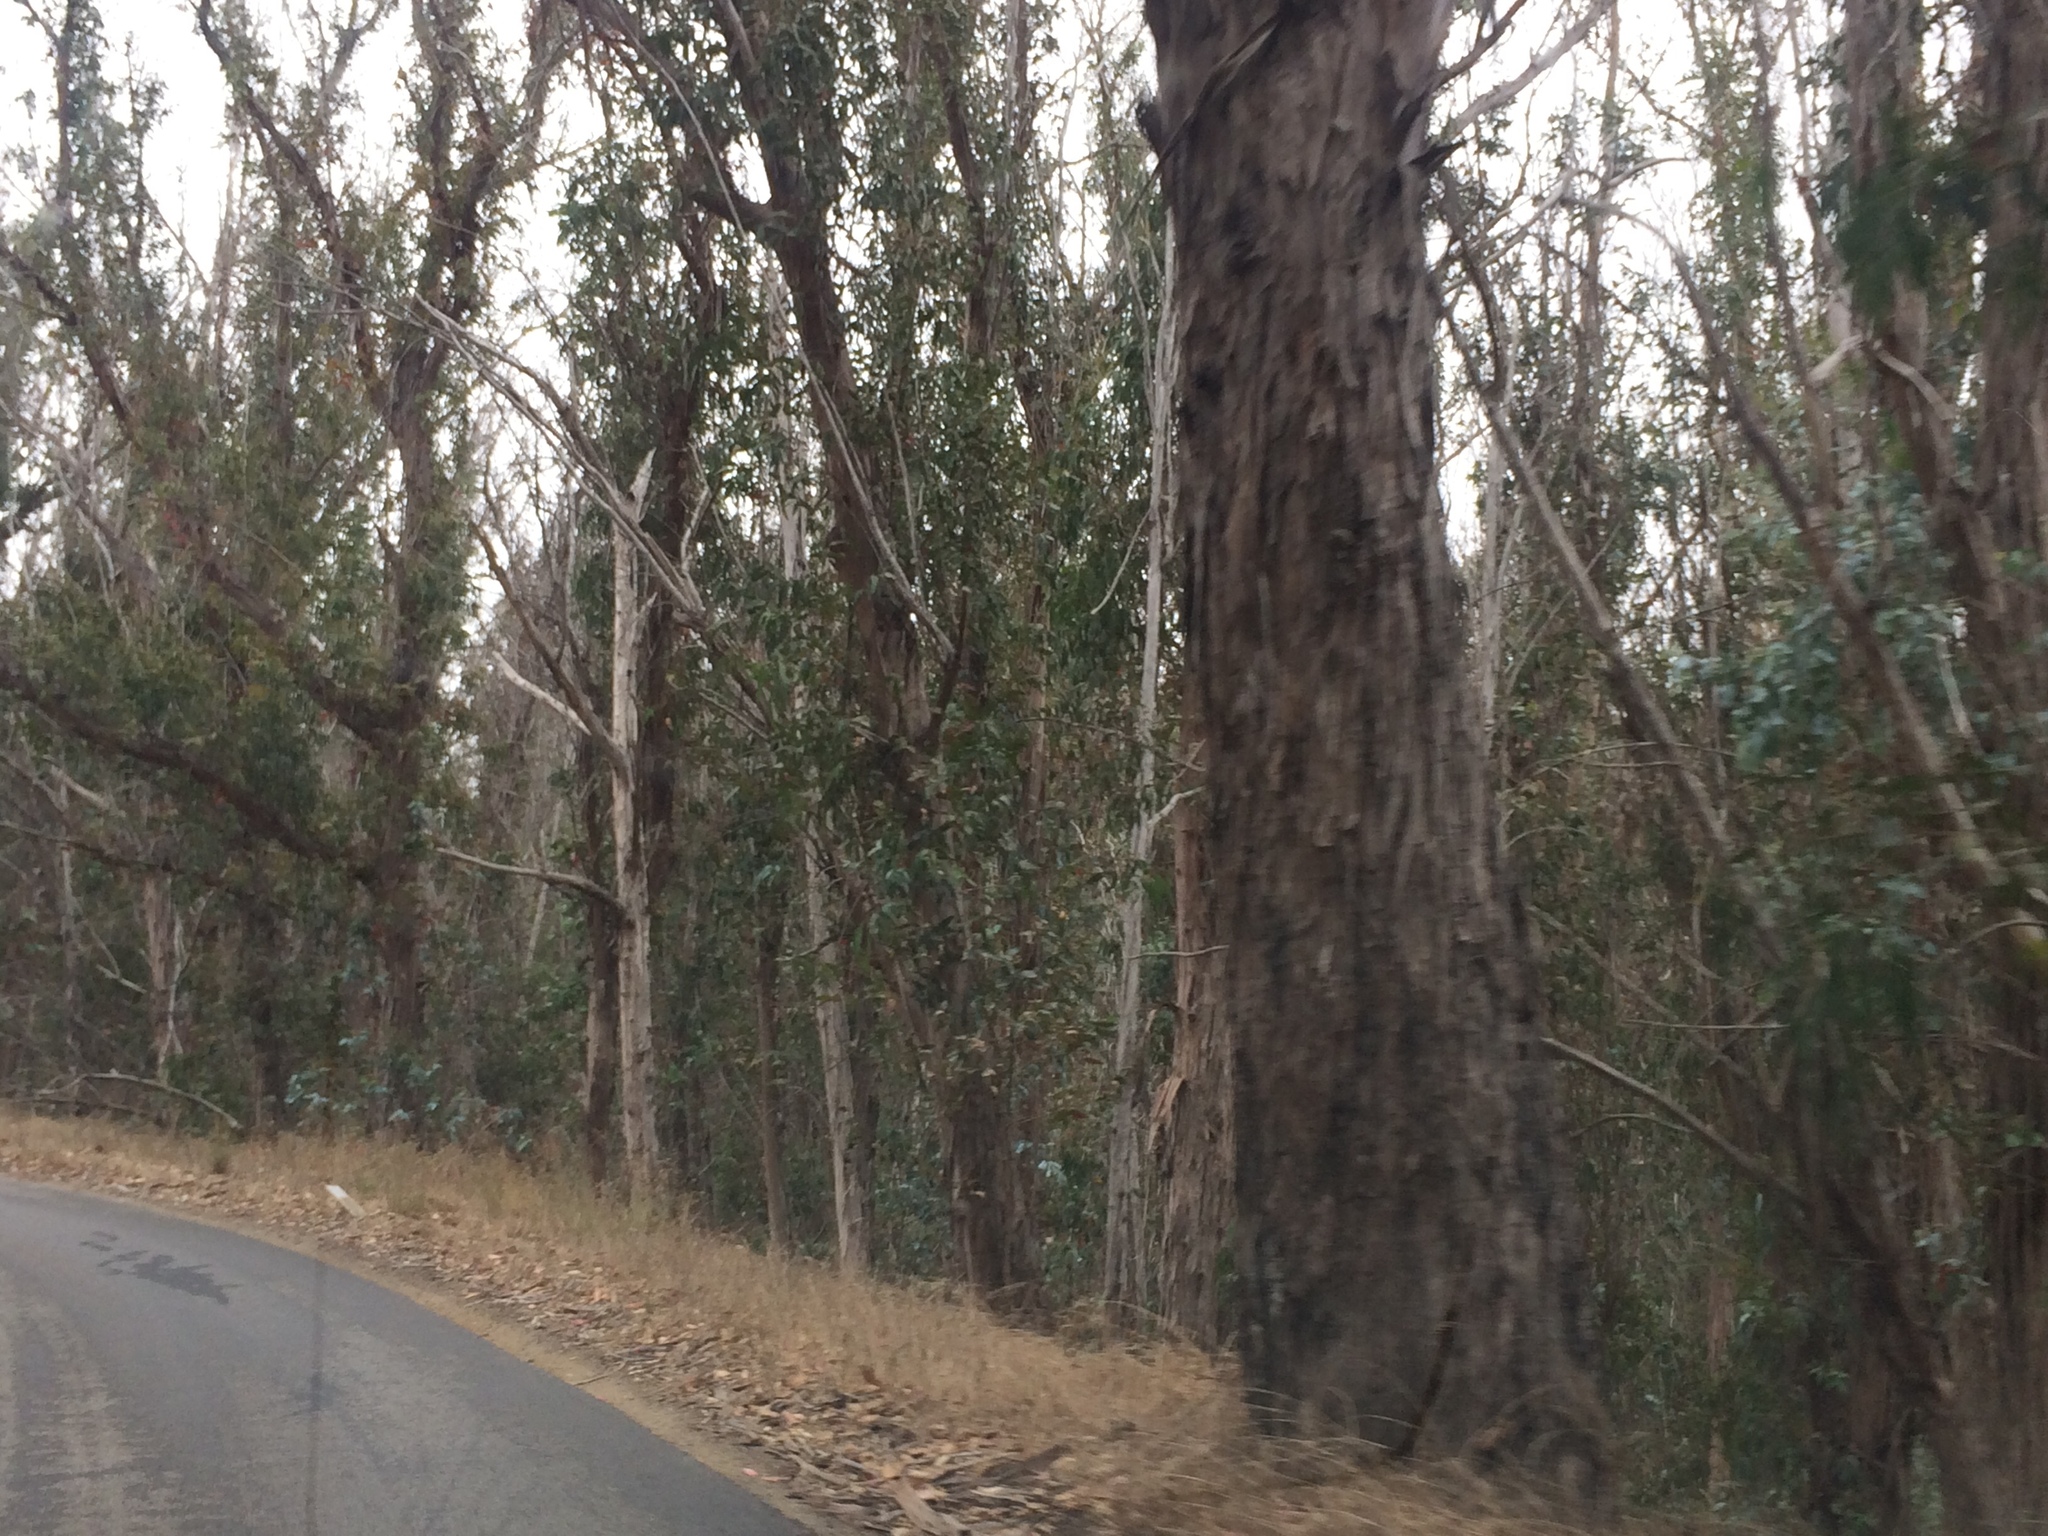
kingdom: Plantae
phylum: Tracheophyta
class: Magnoliopsida
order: Myrtales
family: Myrtaceae
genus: Eucalyptus
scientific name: Eucalyptus globulus
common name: Southern blue-gum
